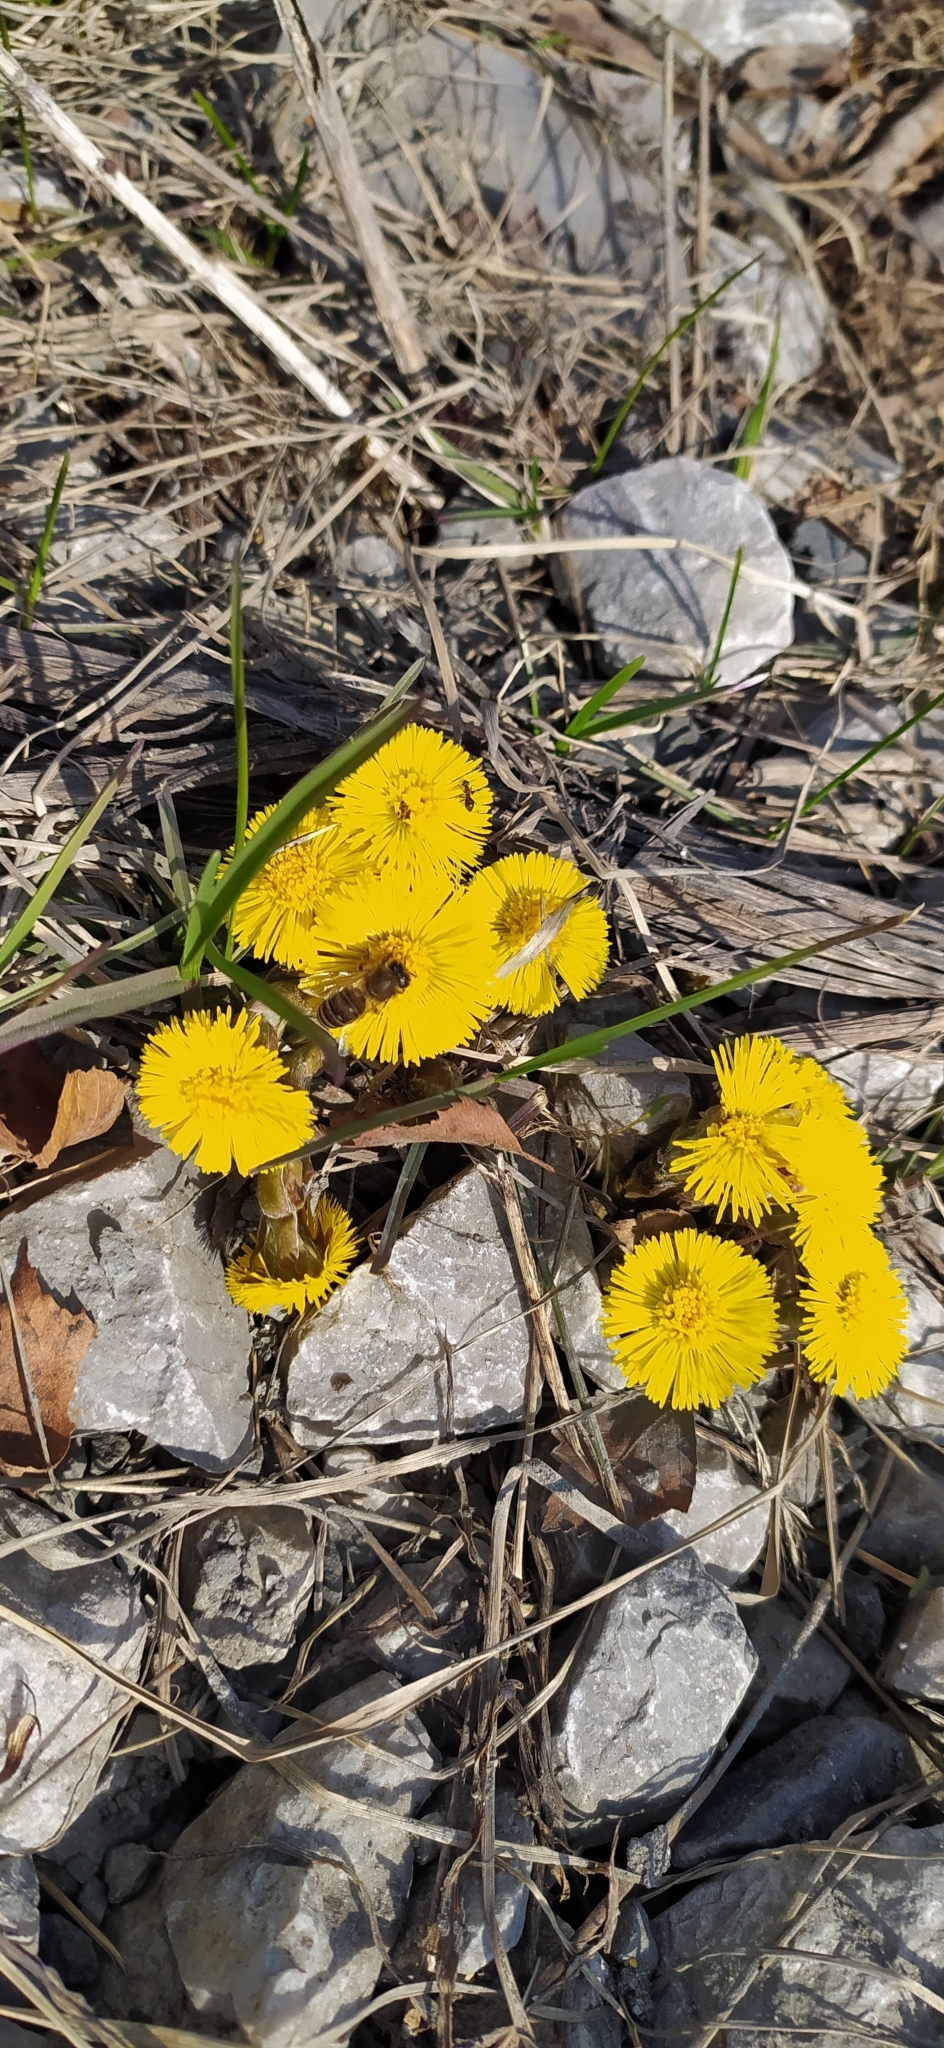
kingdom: Animalia
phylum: Arthropoda
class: Insecta
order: Hymenoptera
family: Apidae
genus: Apis
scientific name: Apis mellifera
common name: Honey bee
